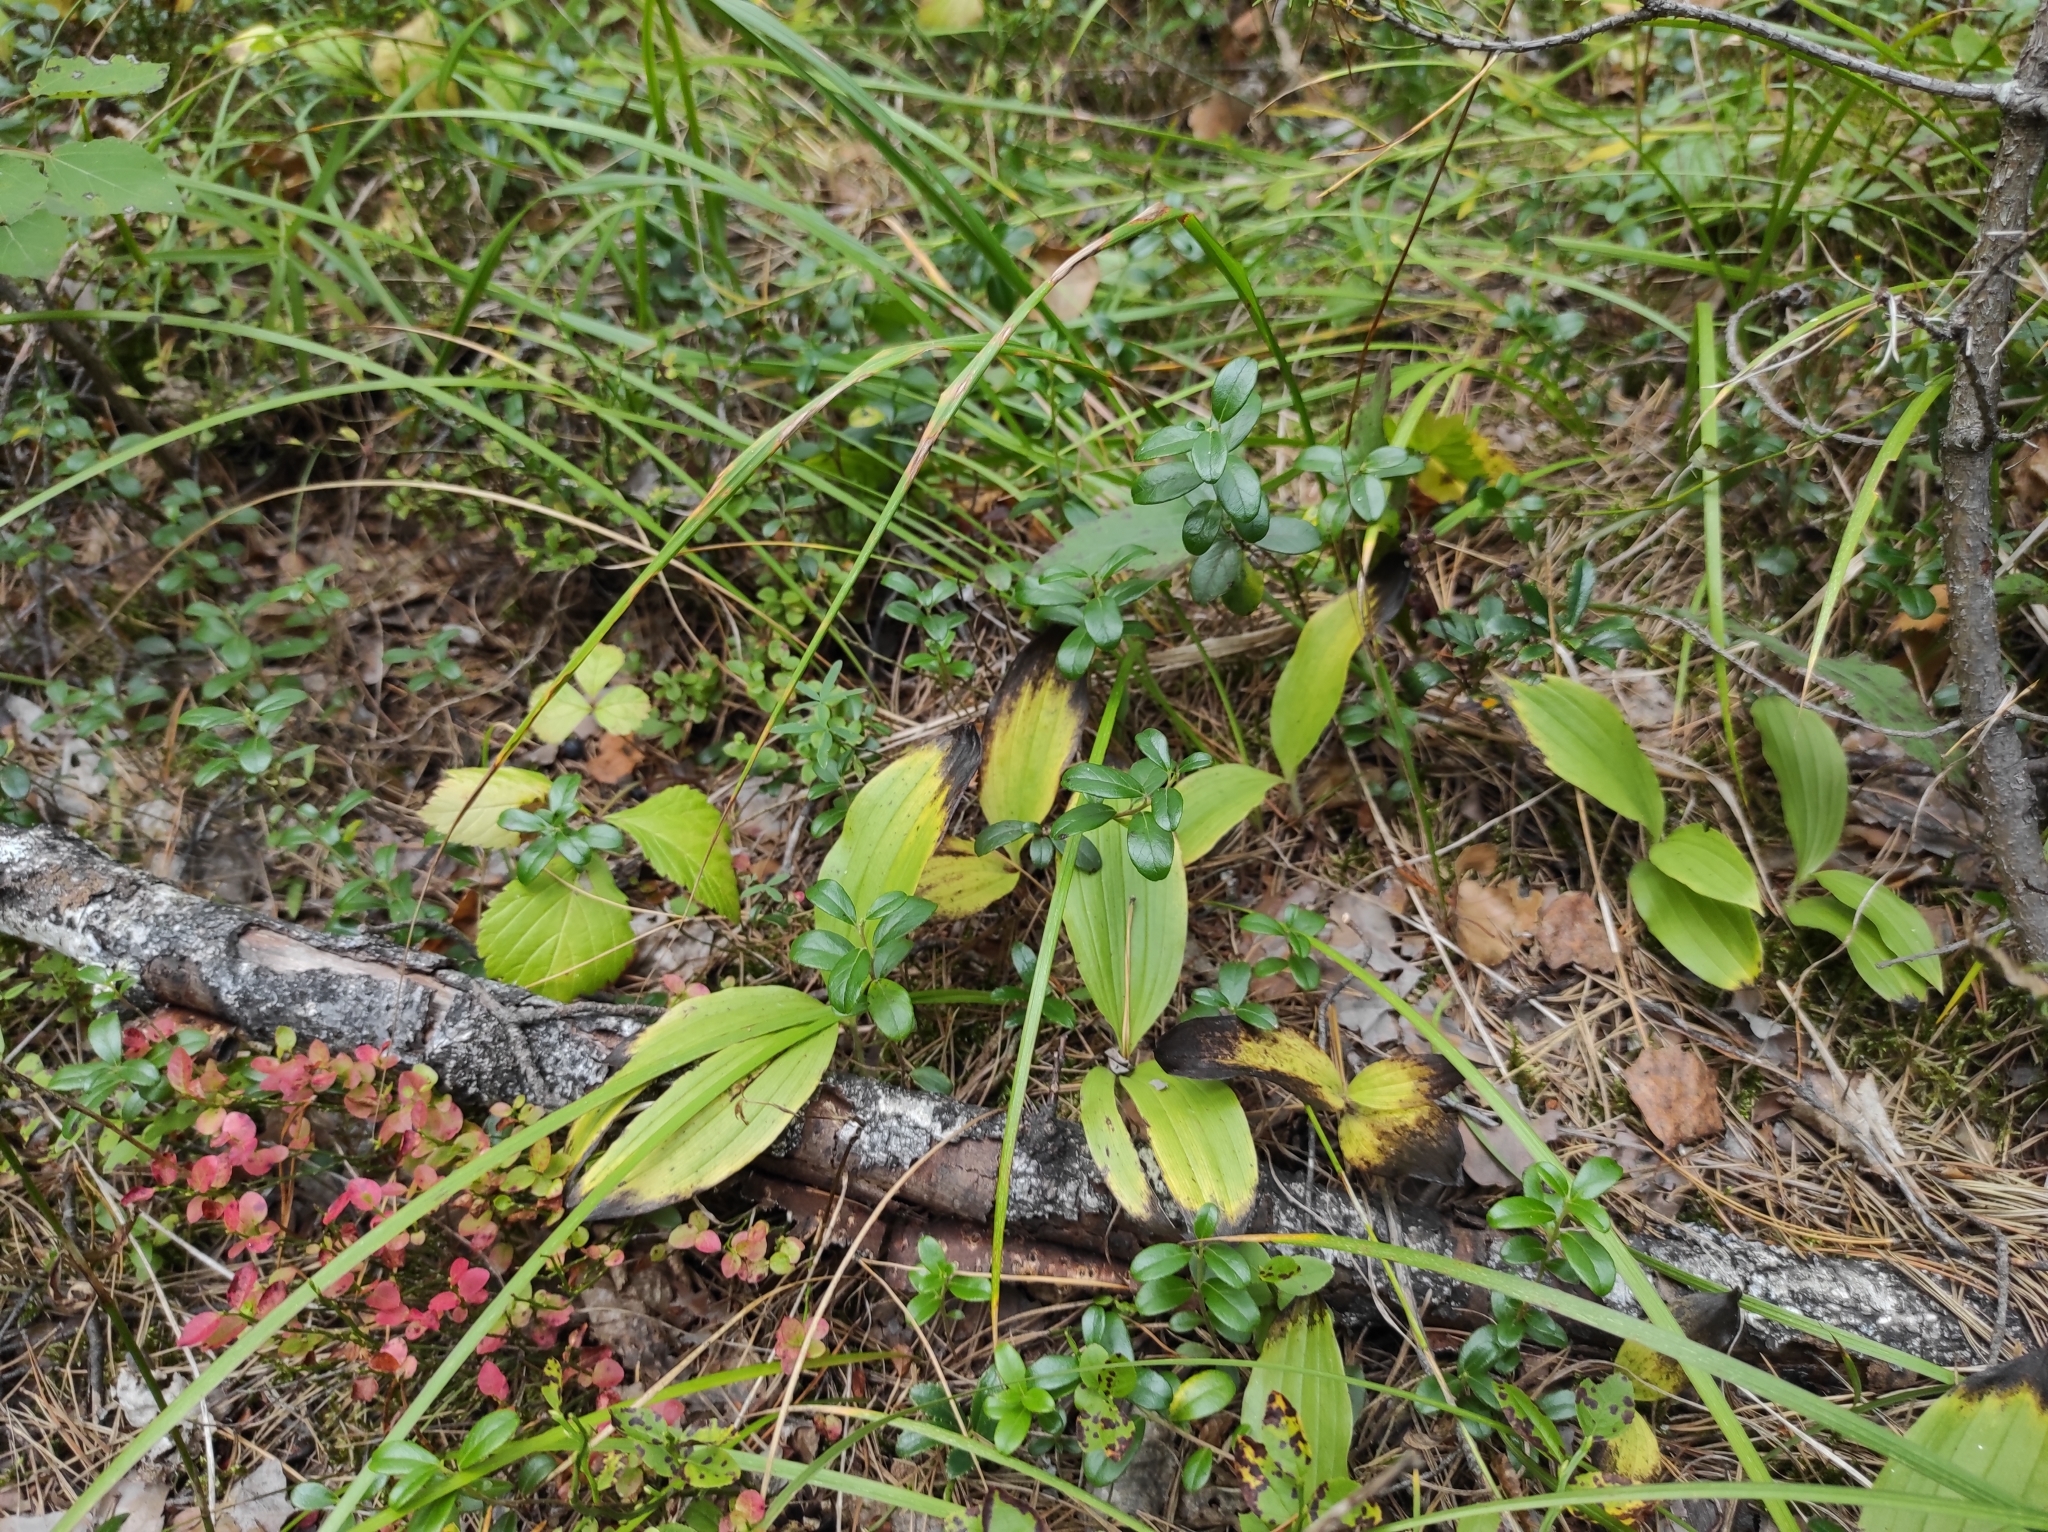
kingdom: Plantae
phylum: Tracheophyta
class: Liliopsida
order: Asparagales
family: Orchidaceae
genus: Cypripedium
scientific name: Cypripedium guttatum
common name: Pink lady slipper
